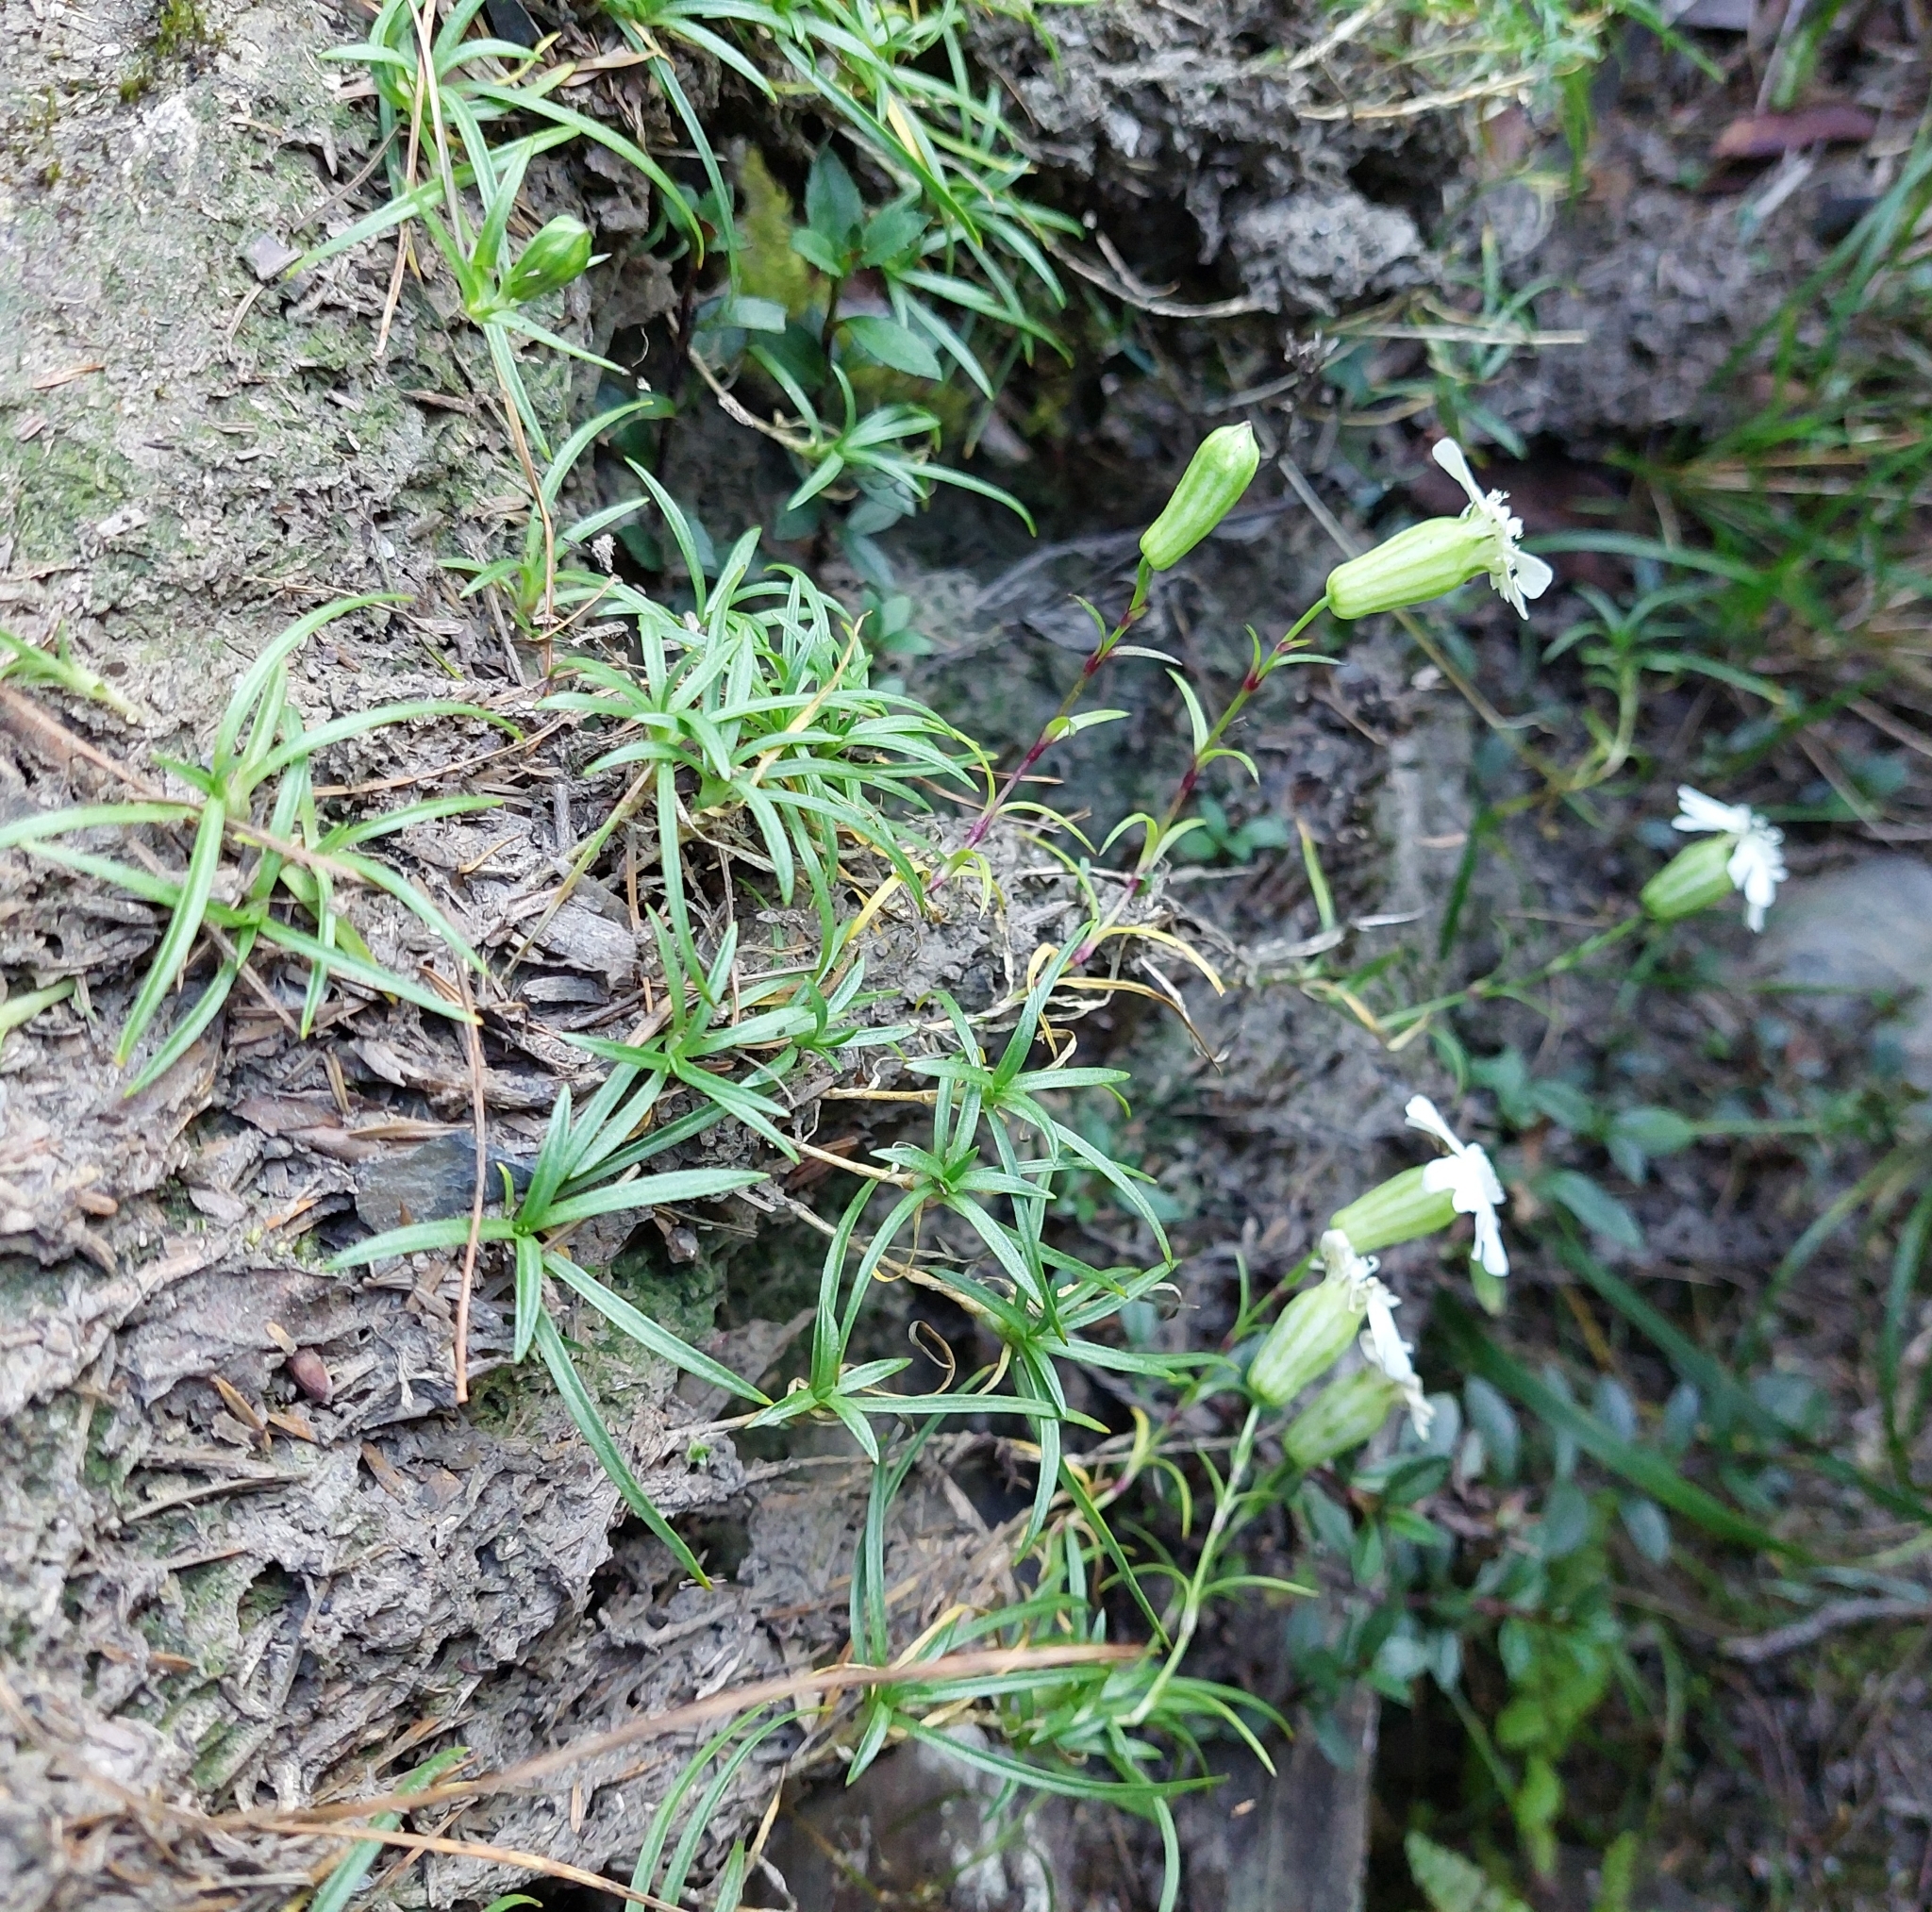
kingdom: Plantae
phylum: Tracheophyta
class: Magnoliopsida
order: Caryophyllales
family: Caryophyllaceae
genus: Silene
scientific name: Silene morrisonmontana
